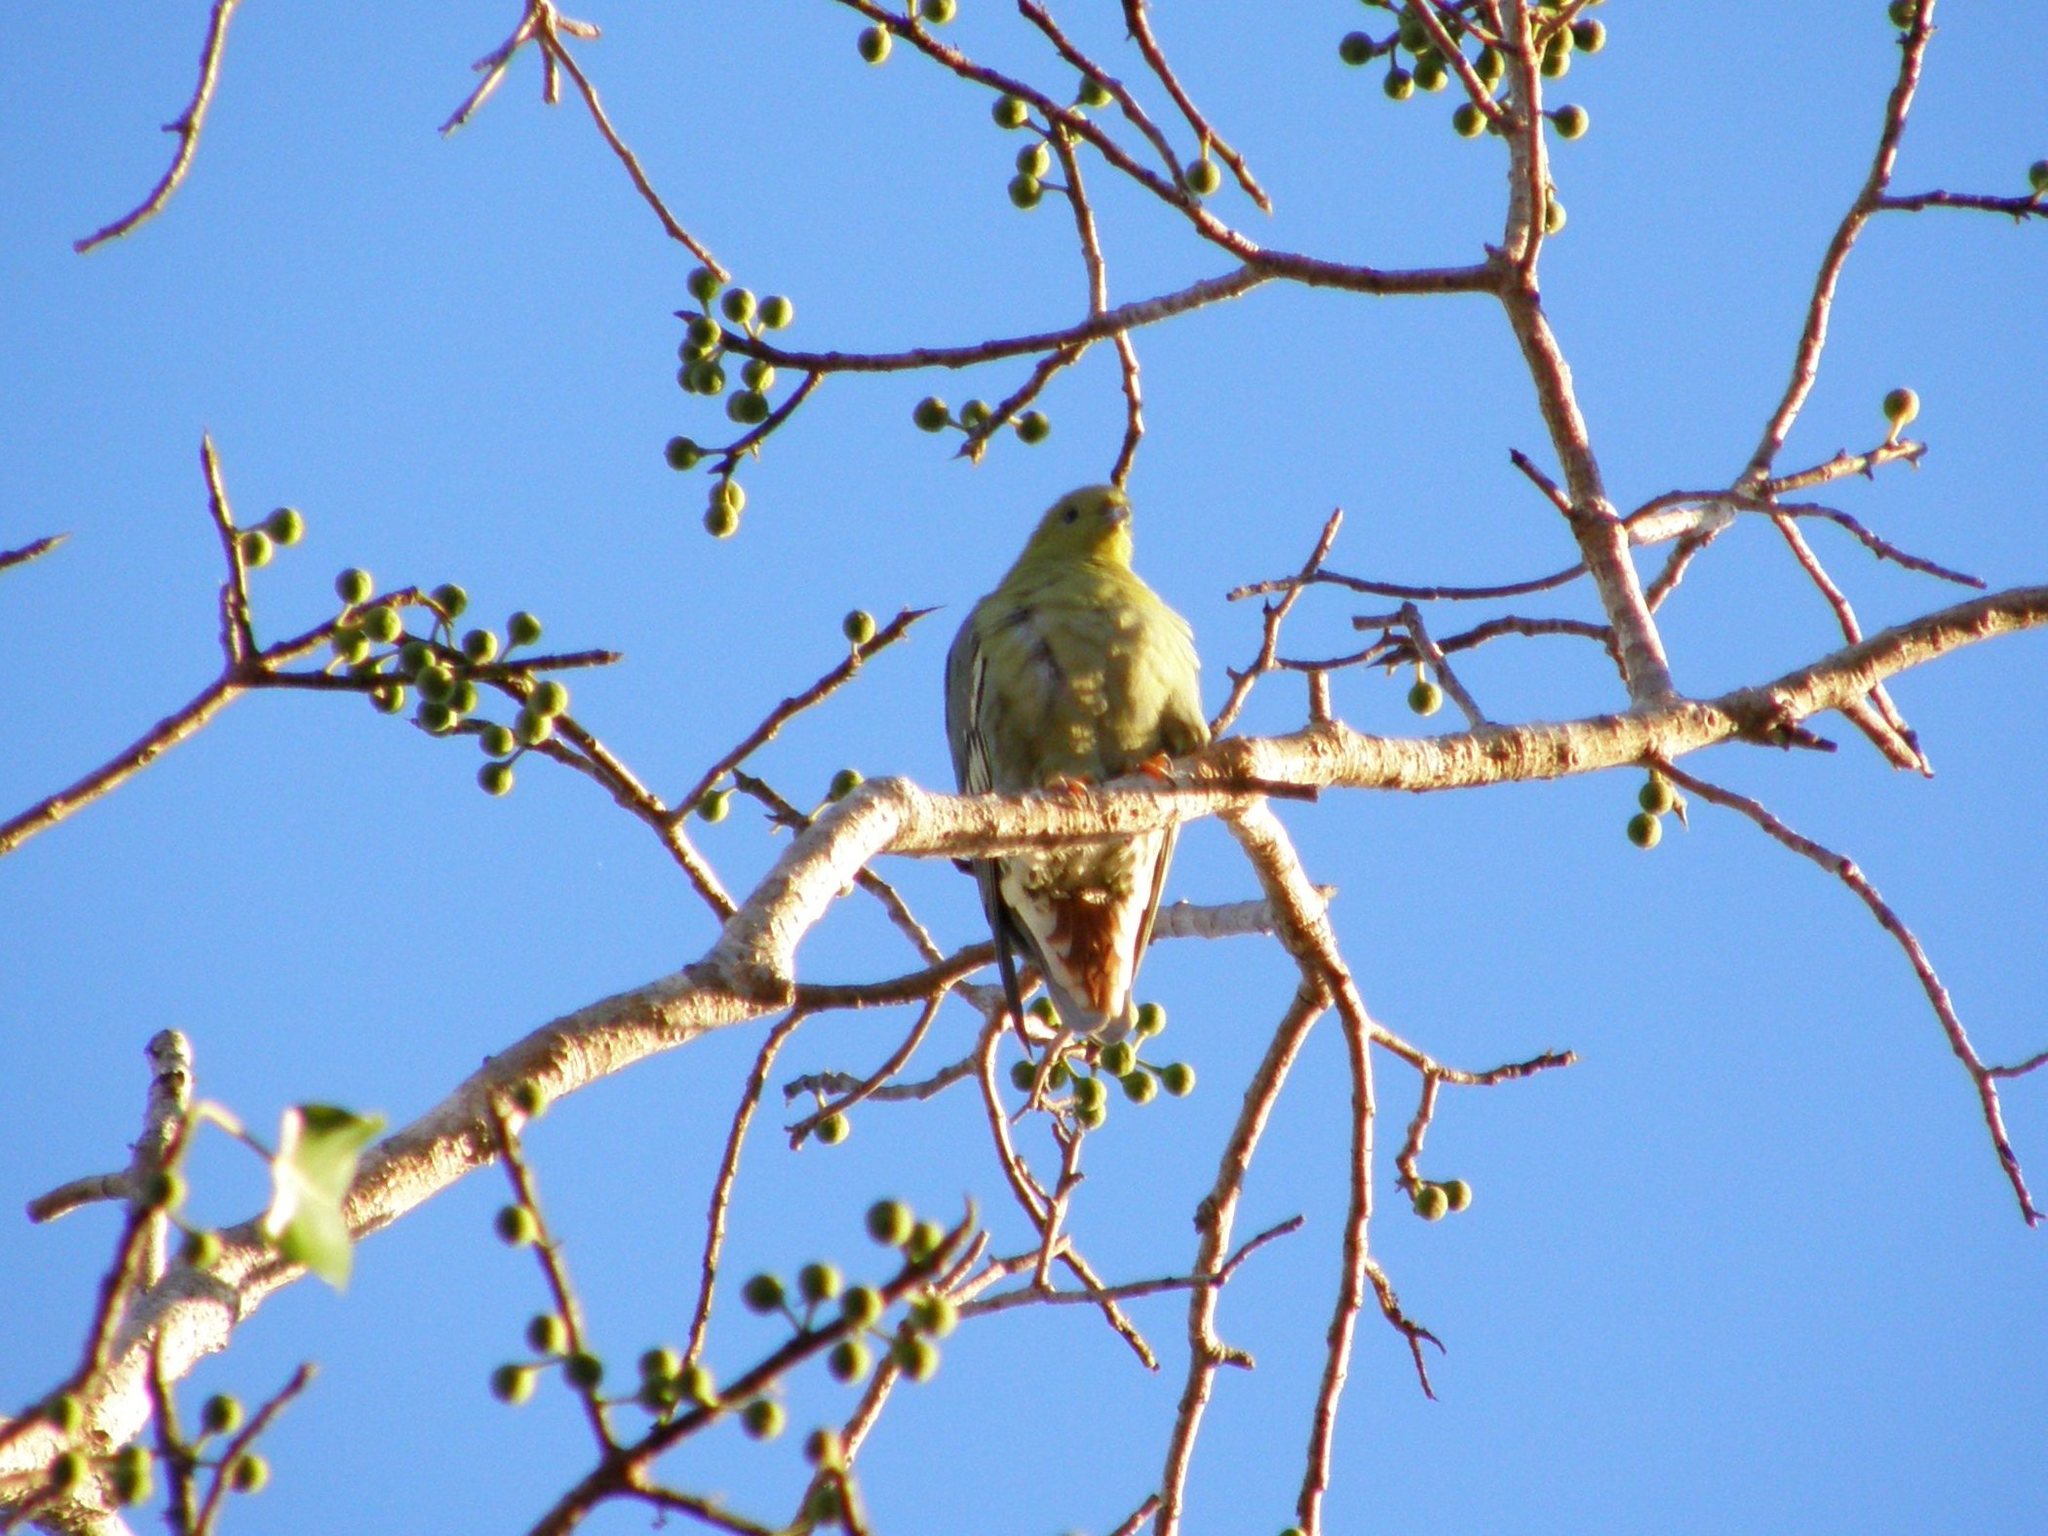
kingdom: Animalia
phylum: Chordata
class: Aves
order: Columbiformes
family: Columbidae
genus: Treron
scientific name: Treron australis
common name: Madagascar green pigeon
